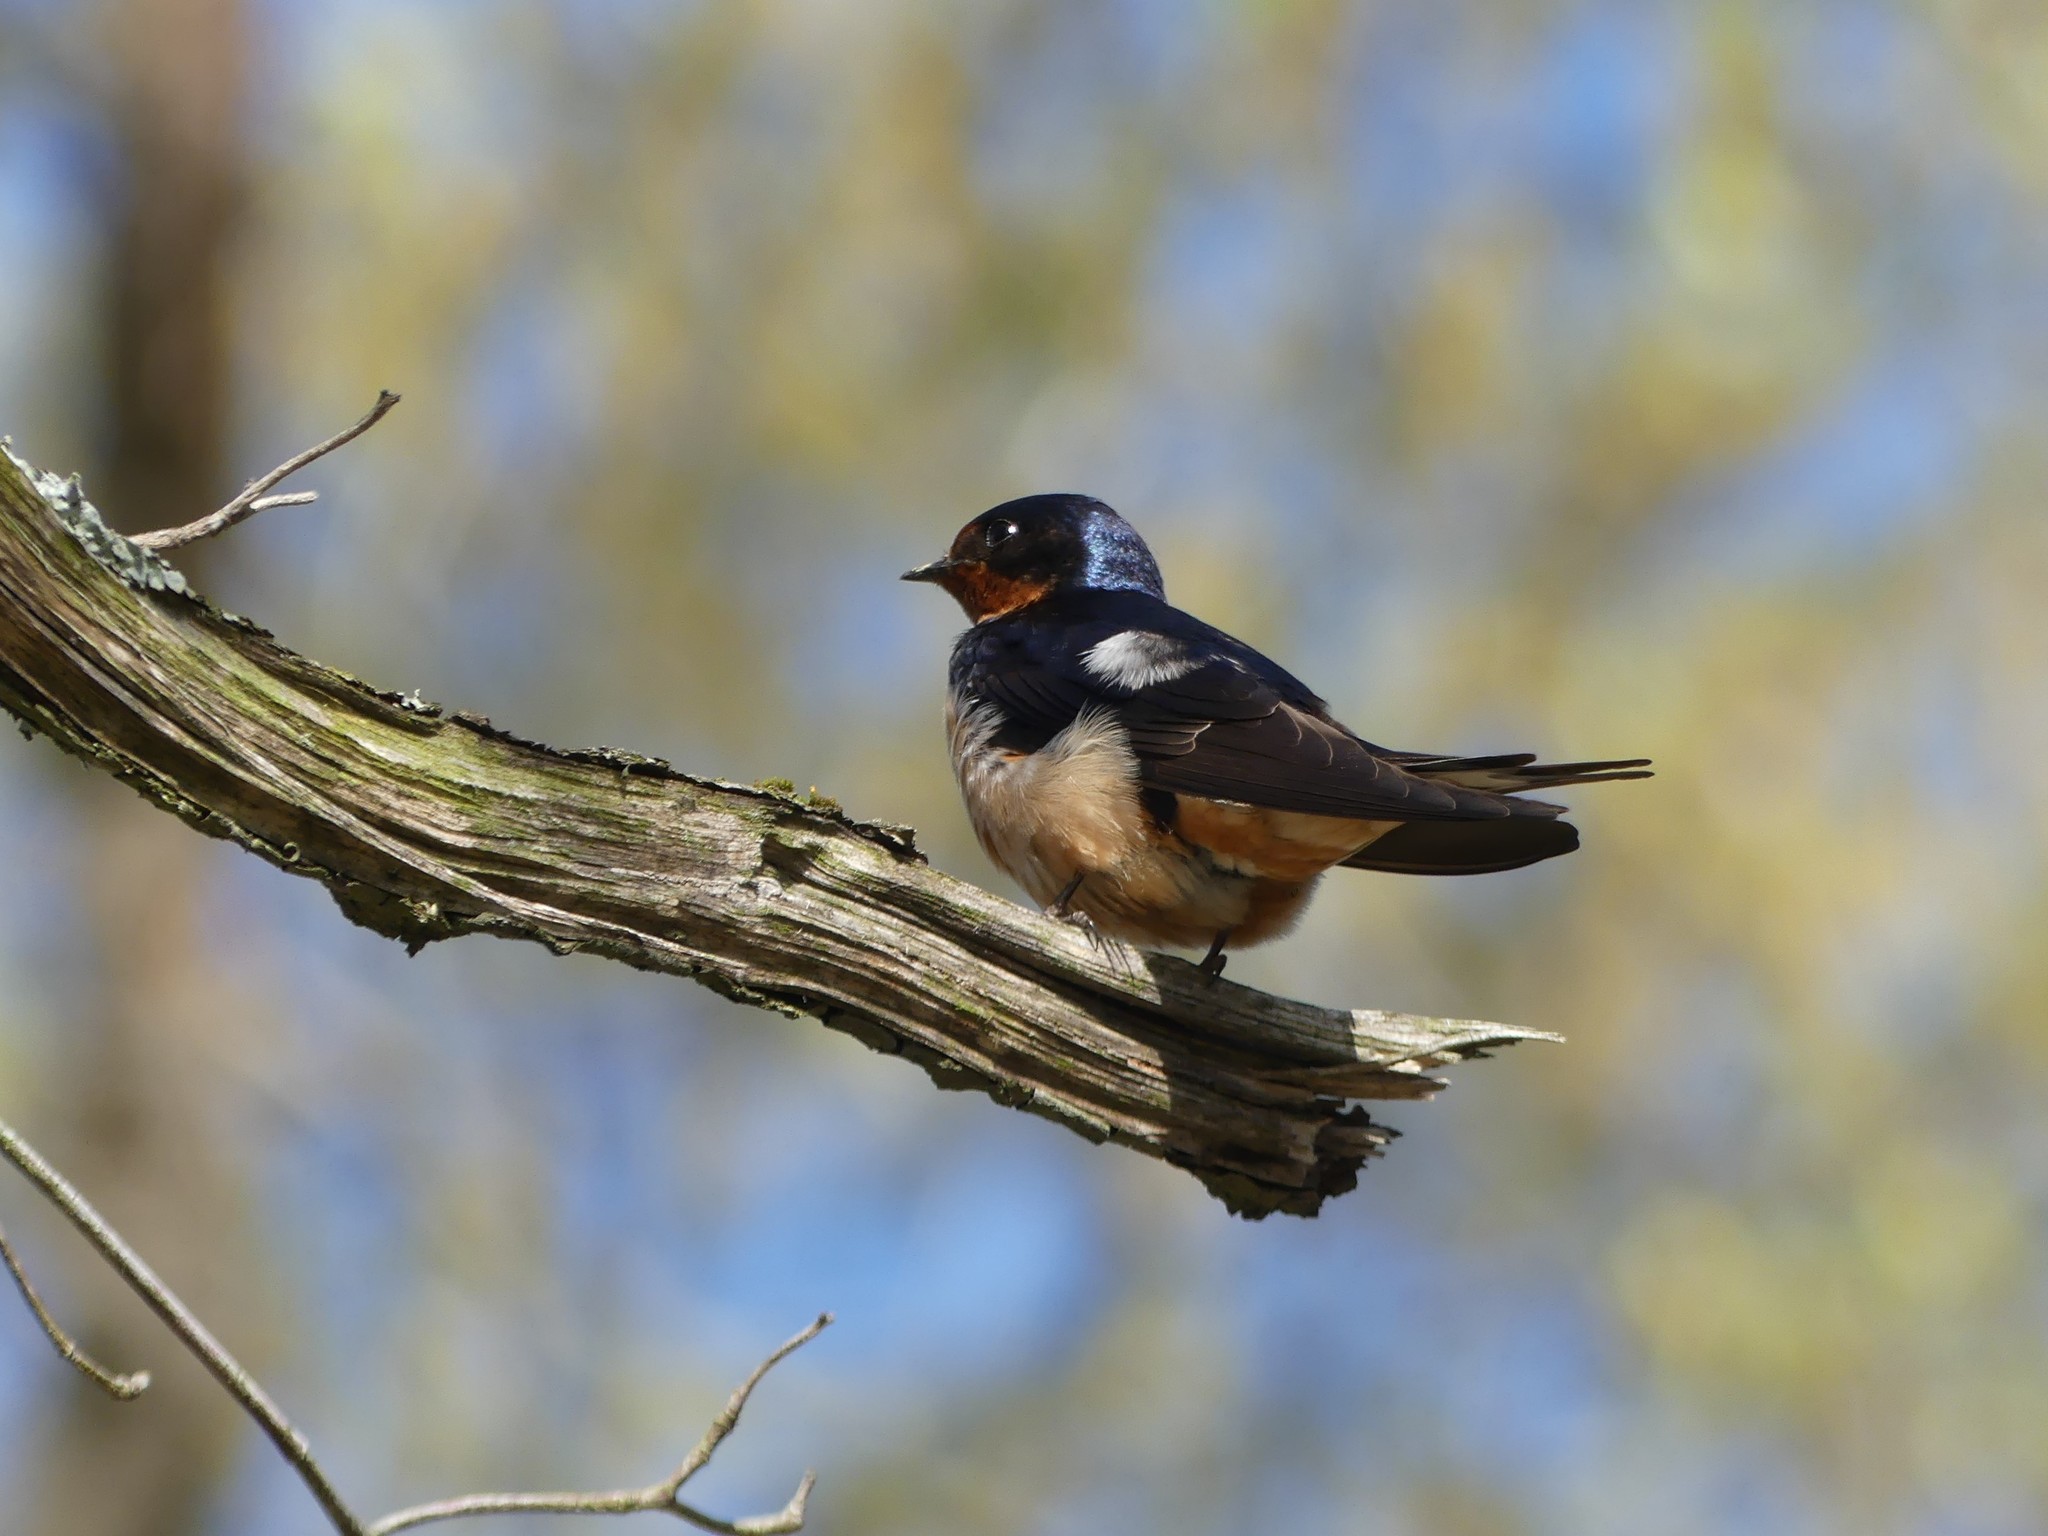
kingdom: Animalia
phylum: Chordata
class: Aves
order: Passeriformes
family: Hirundinidae
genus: Hirundo
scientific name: Hirundo rustica
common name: Barn swallow
